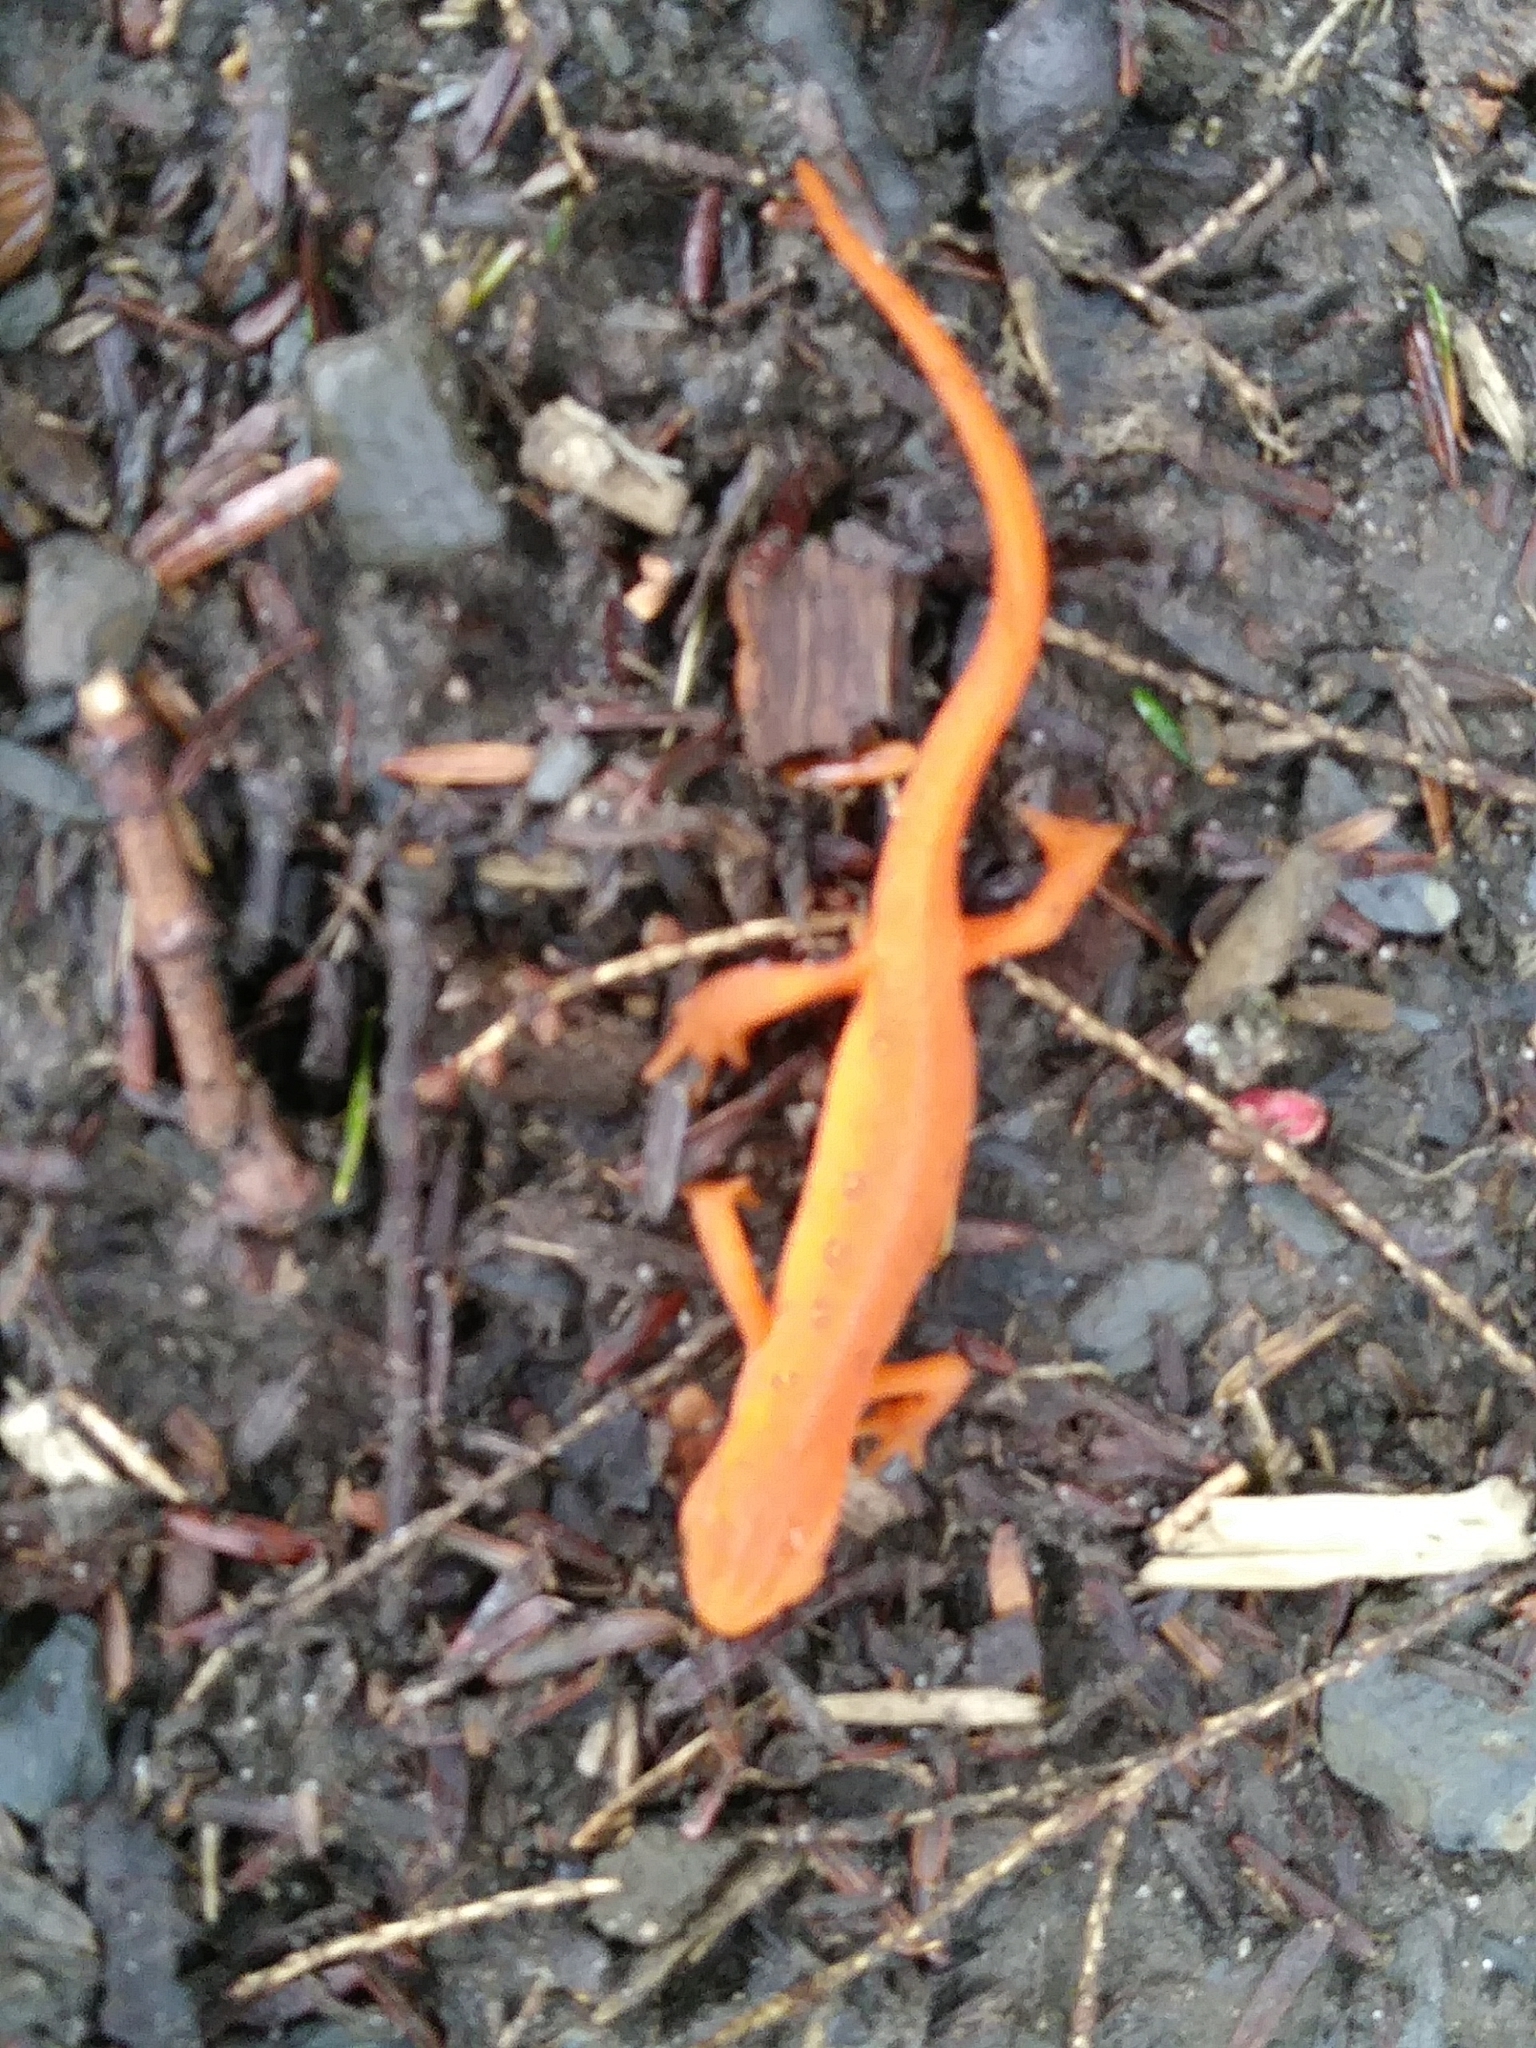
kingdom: Animalia
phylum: Chordata
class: Amphibia
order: Caudata
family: Salamandridae
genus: Notophthalmus
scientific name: Notophthalmus viridescens
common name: Eastern newt
